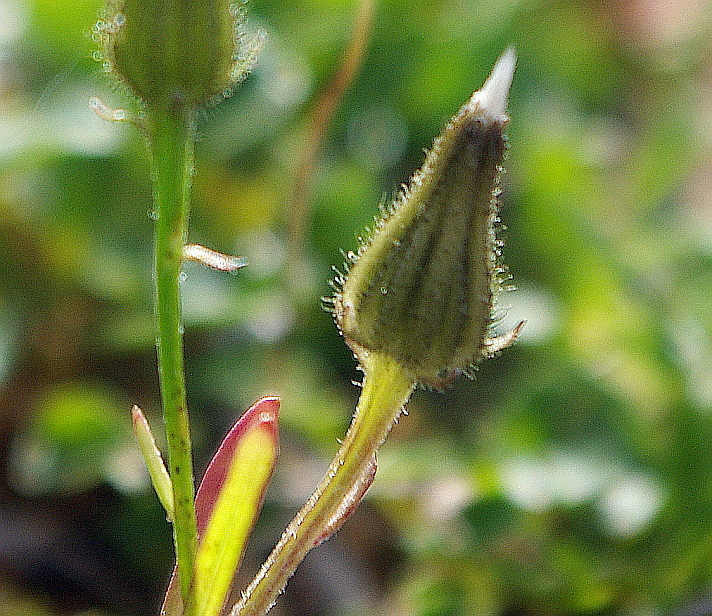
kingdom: Plantae
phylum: Tracheophyta
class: Magnoliopsida
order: Asterales
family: Asteraceae
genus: Crepis
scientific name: Crepis tectorum
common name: Narrow-leaved hawk's-beard
